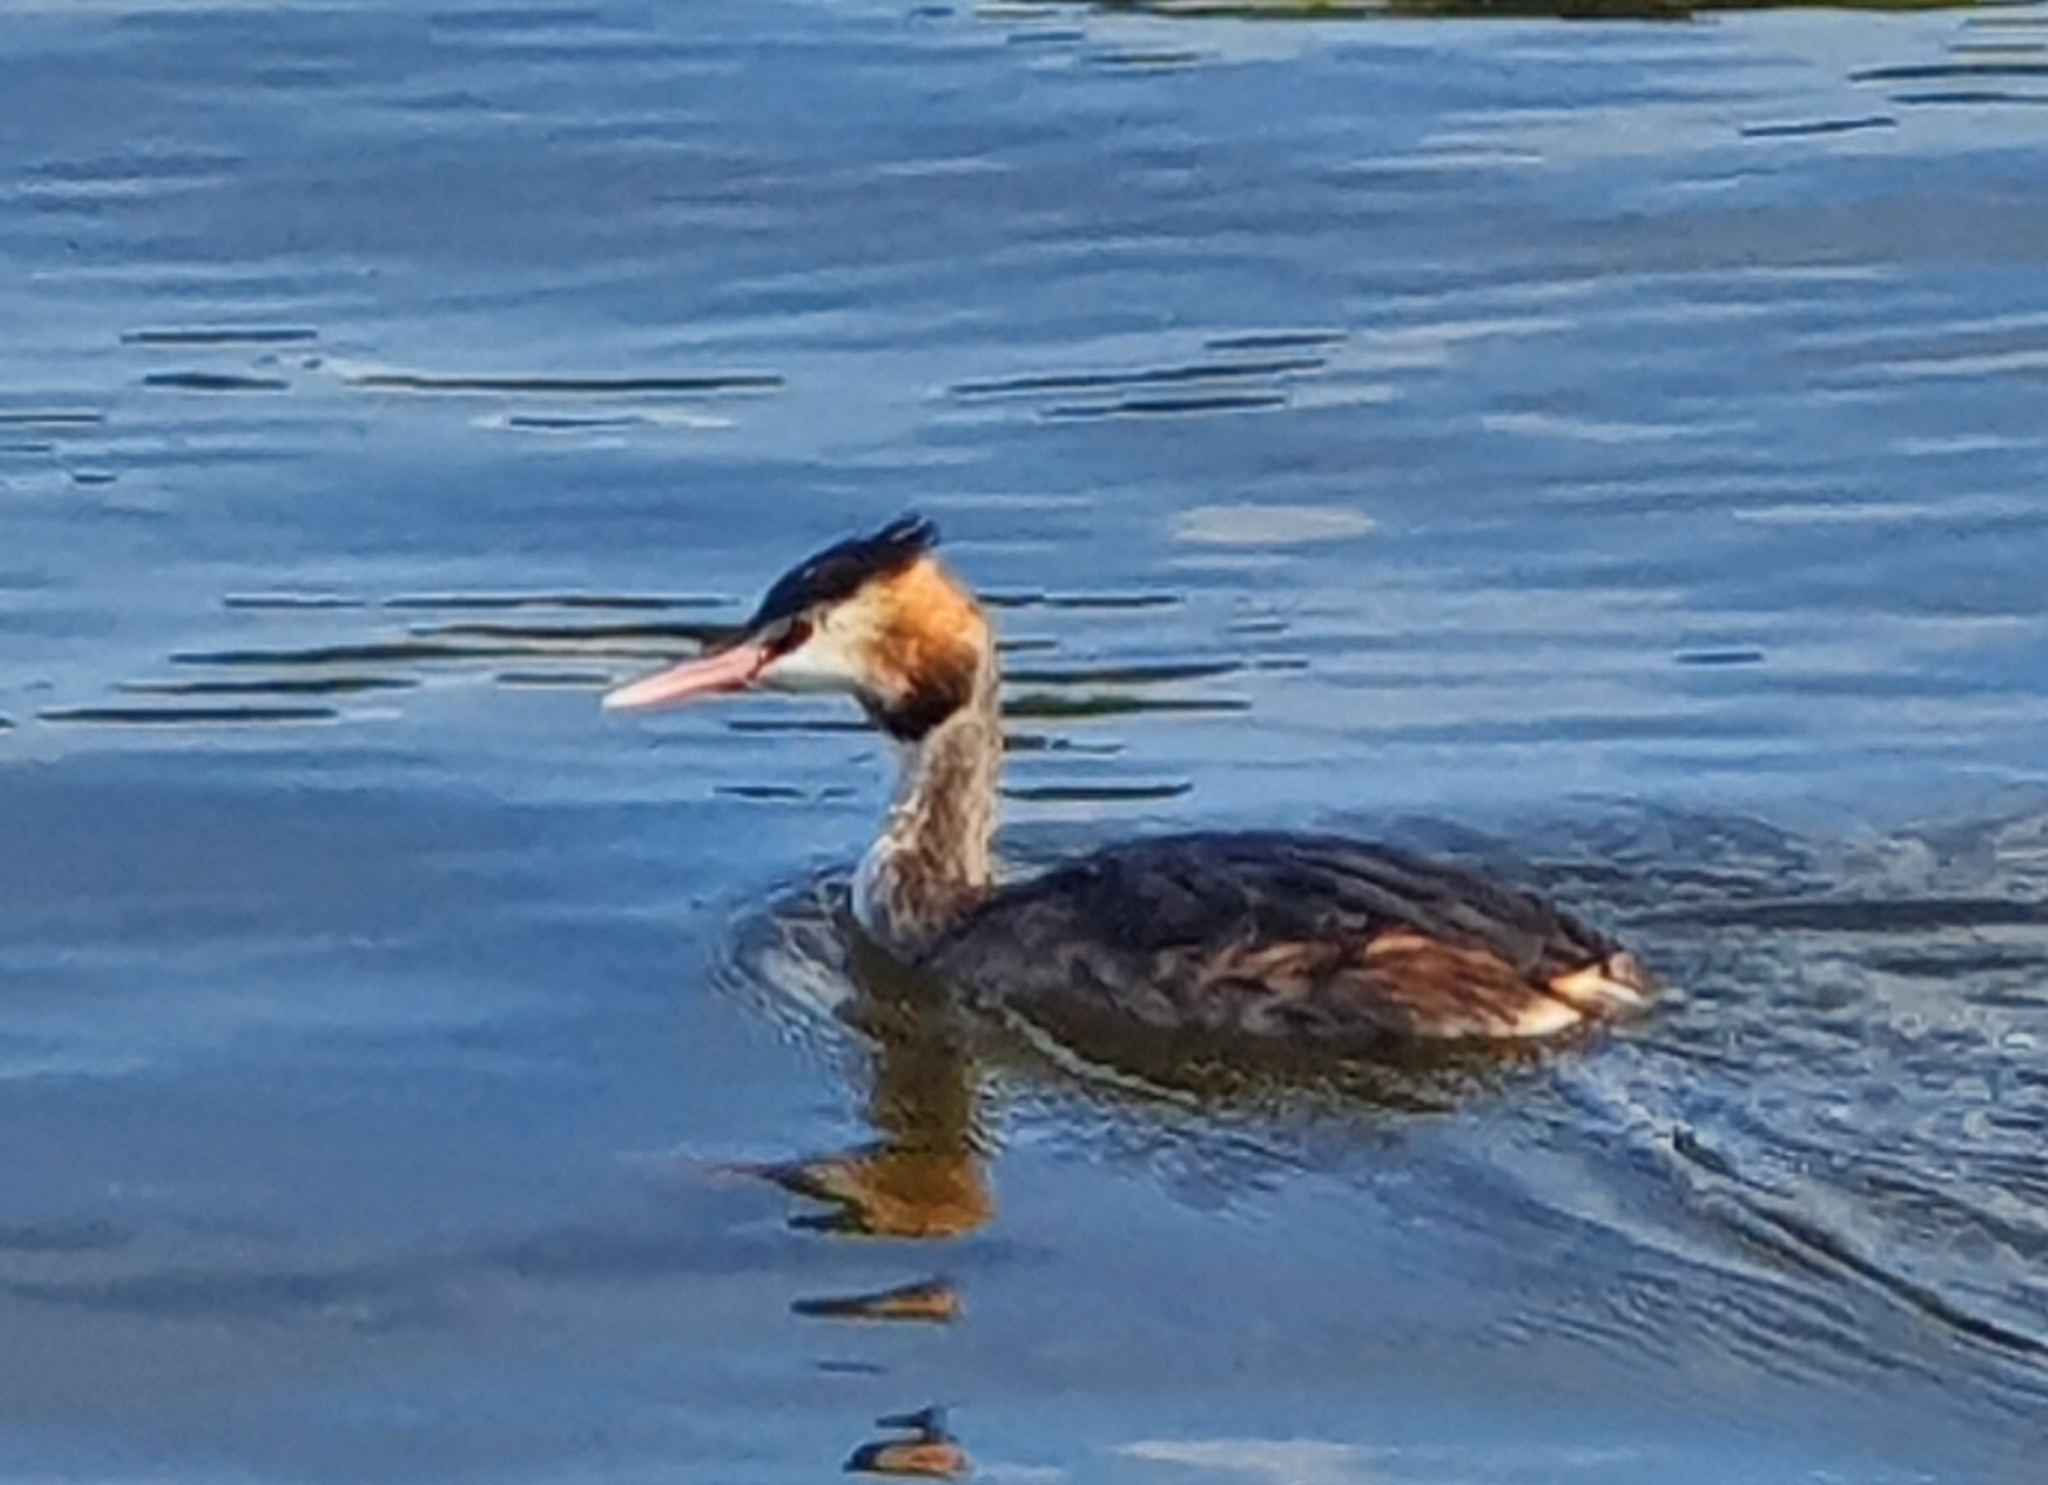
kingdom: Animalia
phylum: Chordata
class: Aves
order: Podicipediformes
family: Podicipedidae
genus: Podiceps
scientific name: Podiceps cristatus
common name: Great crested grebe
